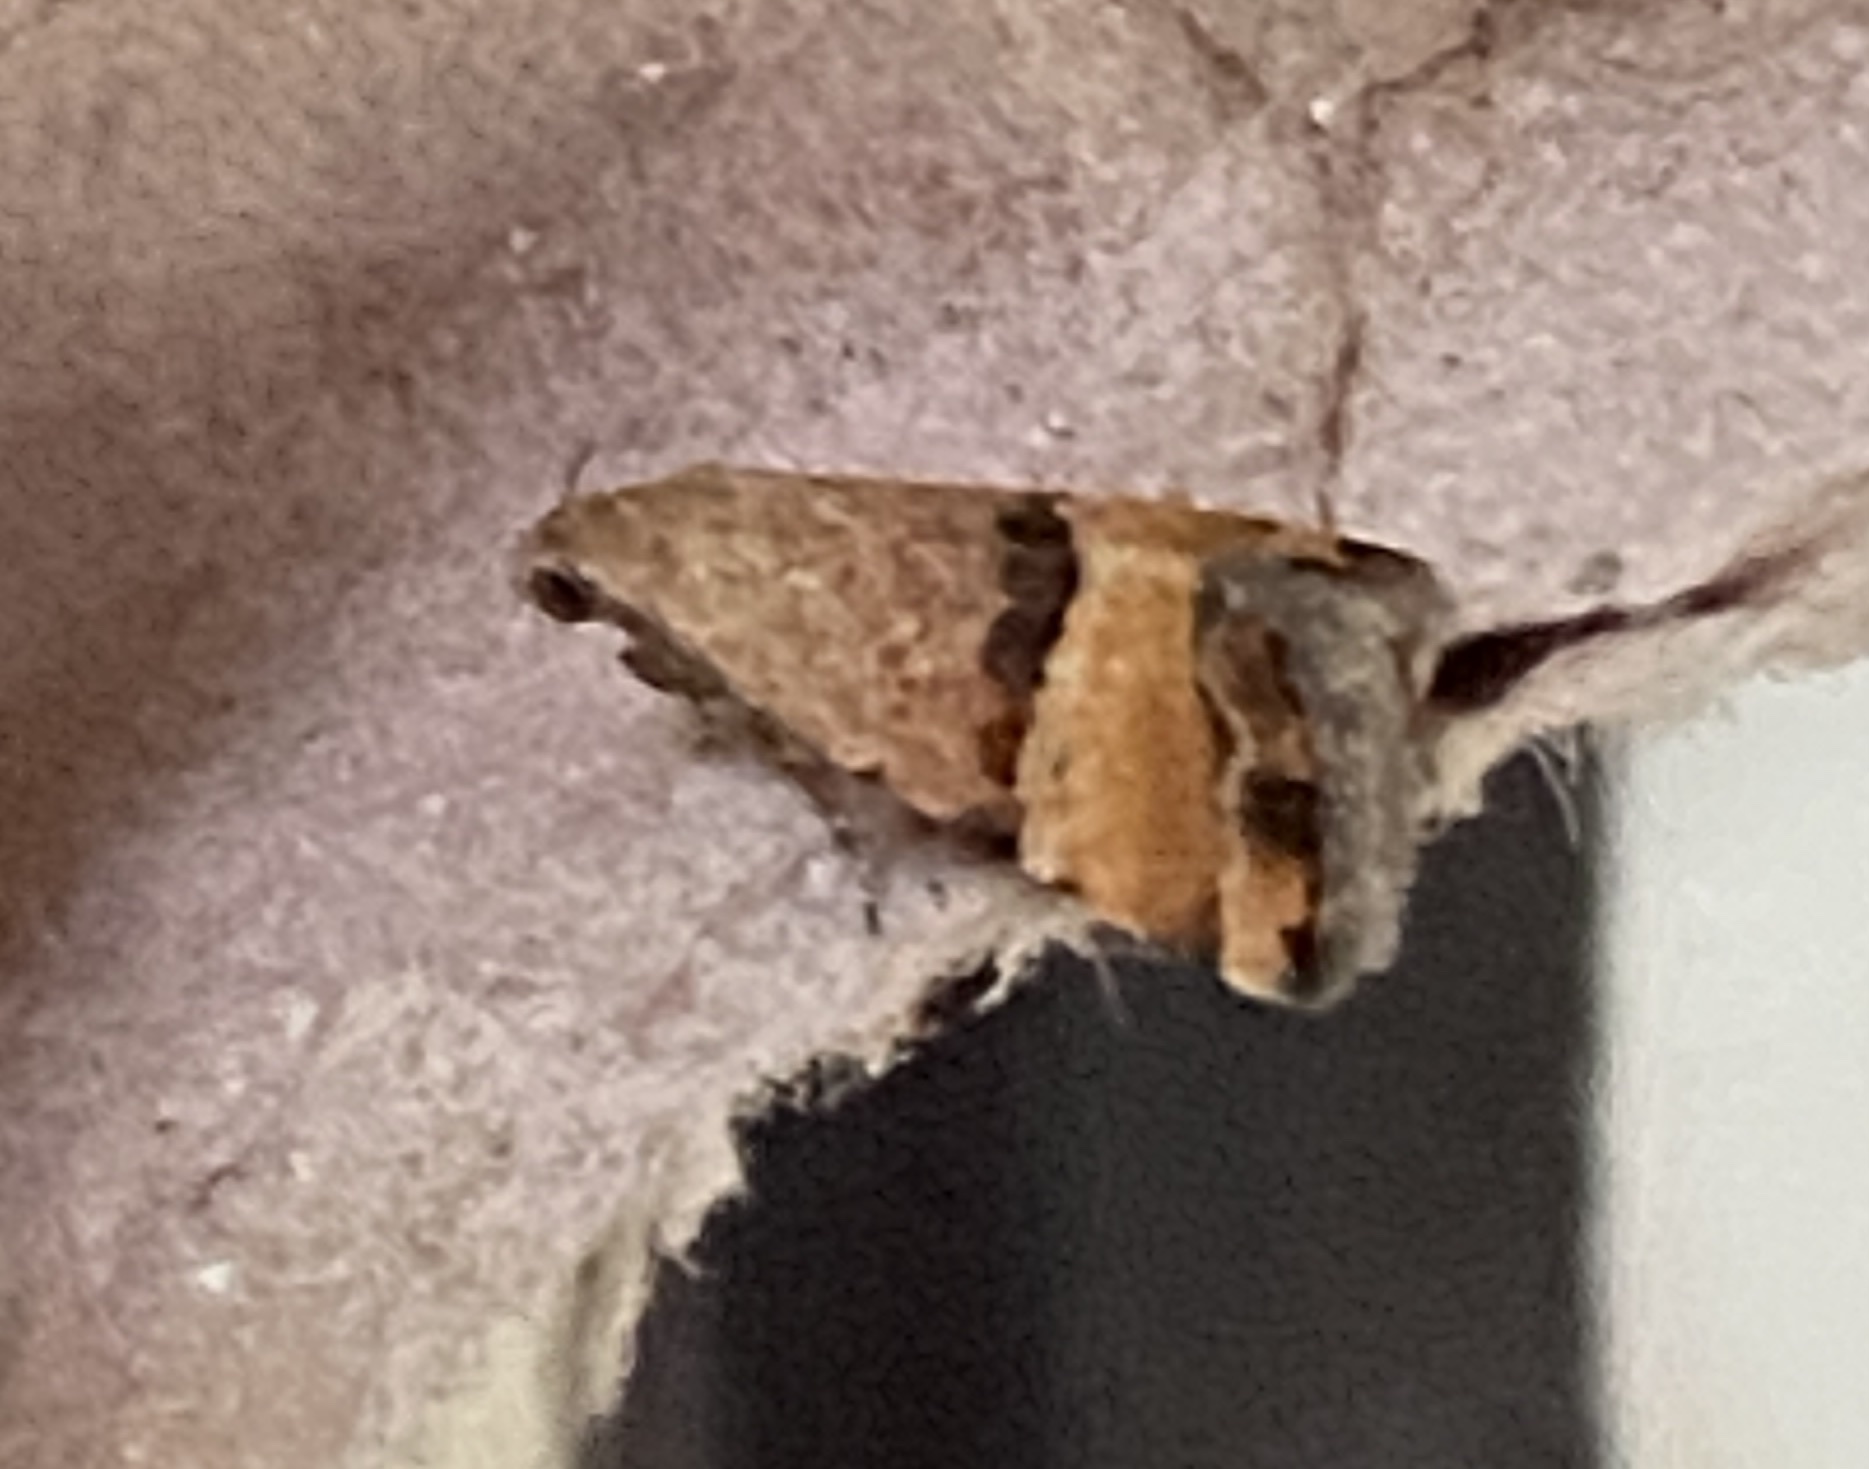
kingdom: Animalia
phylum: Arthropoda
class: Insecta
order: Lepidoptera
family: Noctuidae
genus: Pseudozarba
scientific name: Pseudozarba orthopetes
